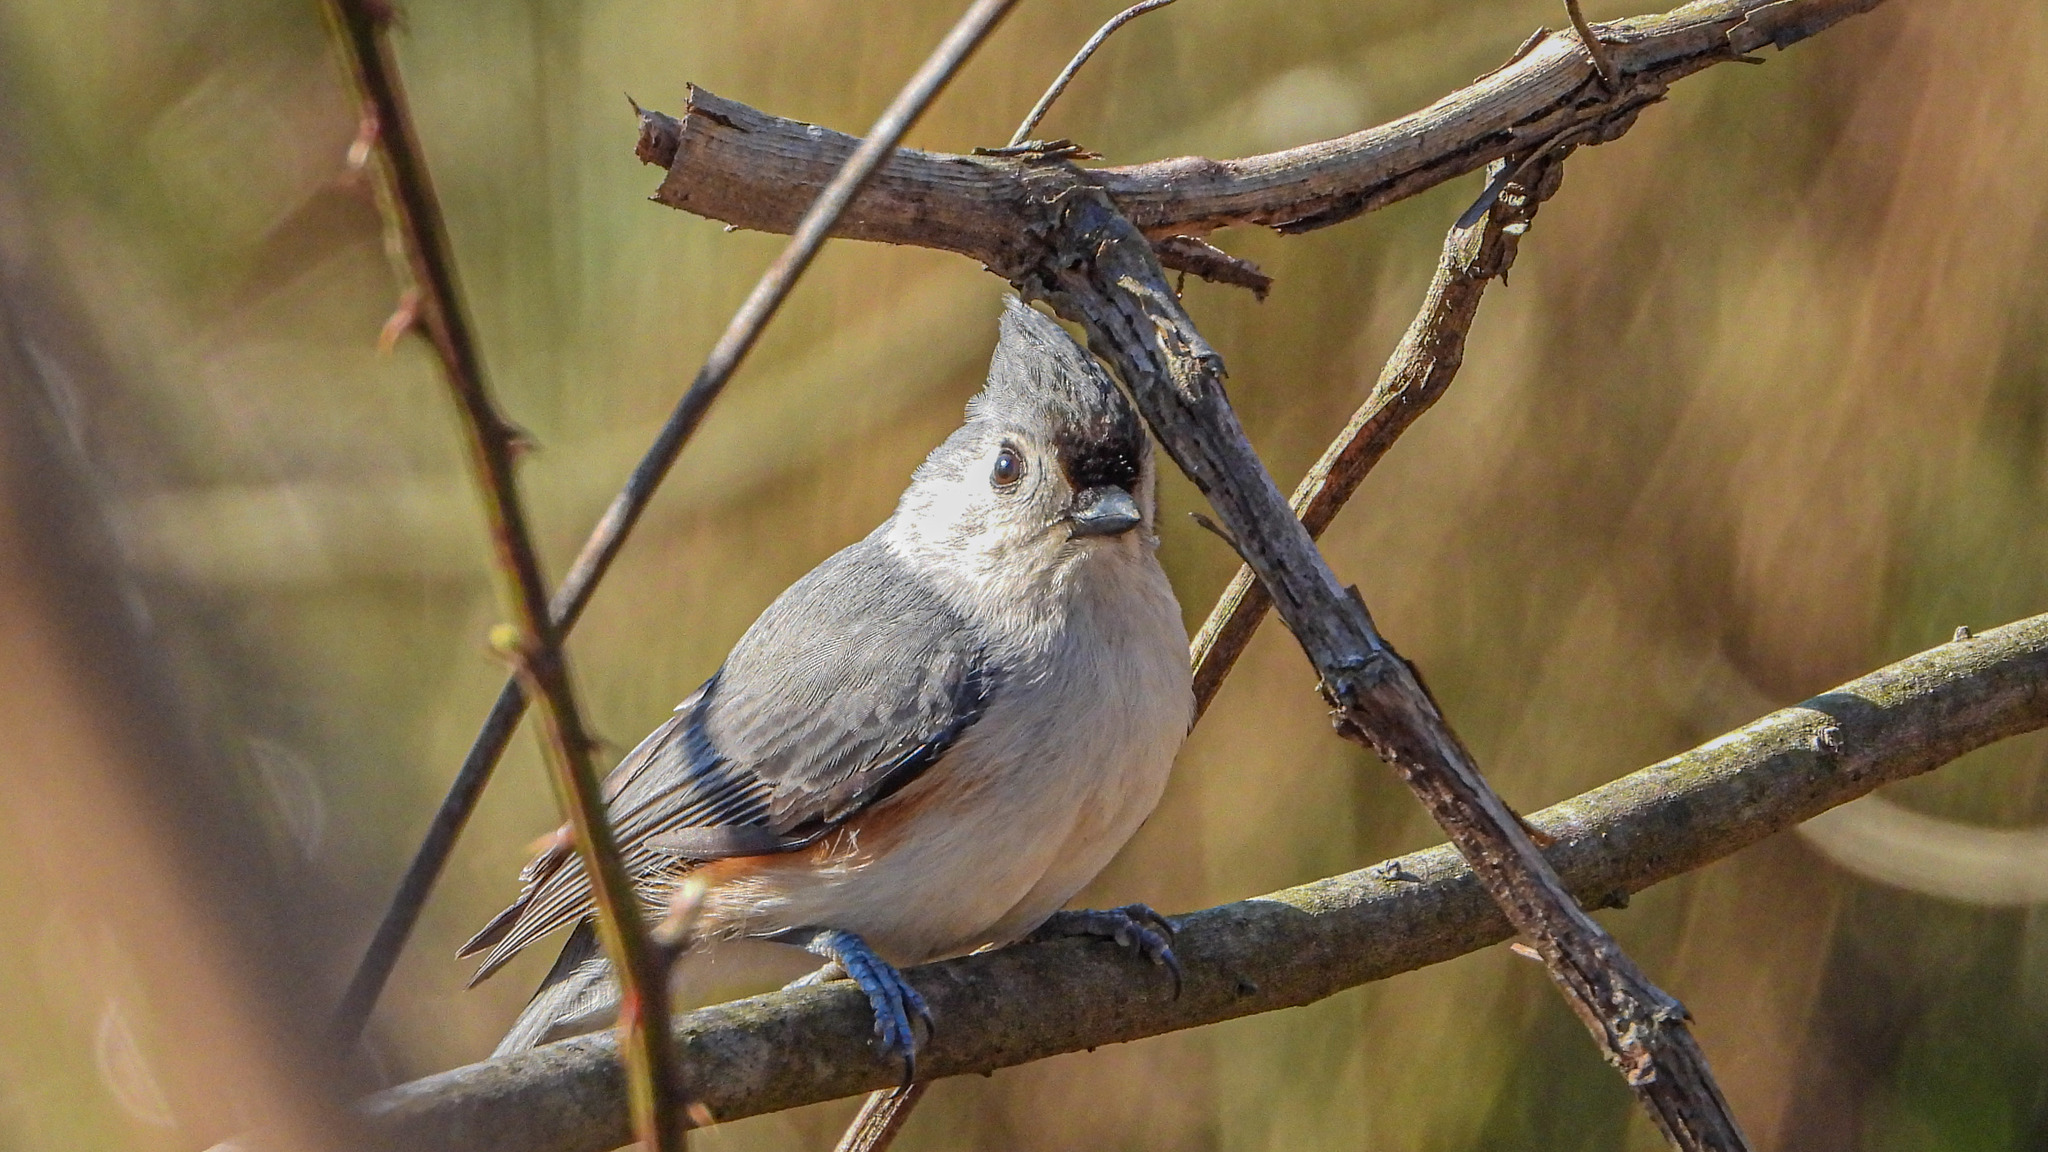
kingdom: Animalia
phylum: Chordata
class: Aves
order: Passeriformes
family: Paridae
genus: Baeolophus
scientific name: Baeolophus bicolor
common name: Tufted titmouse
